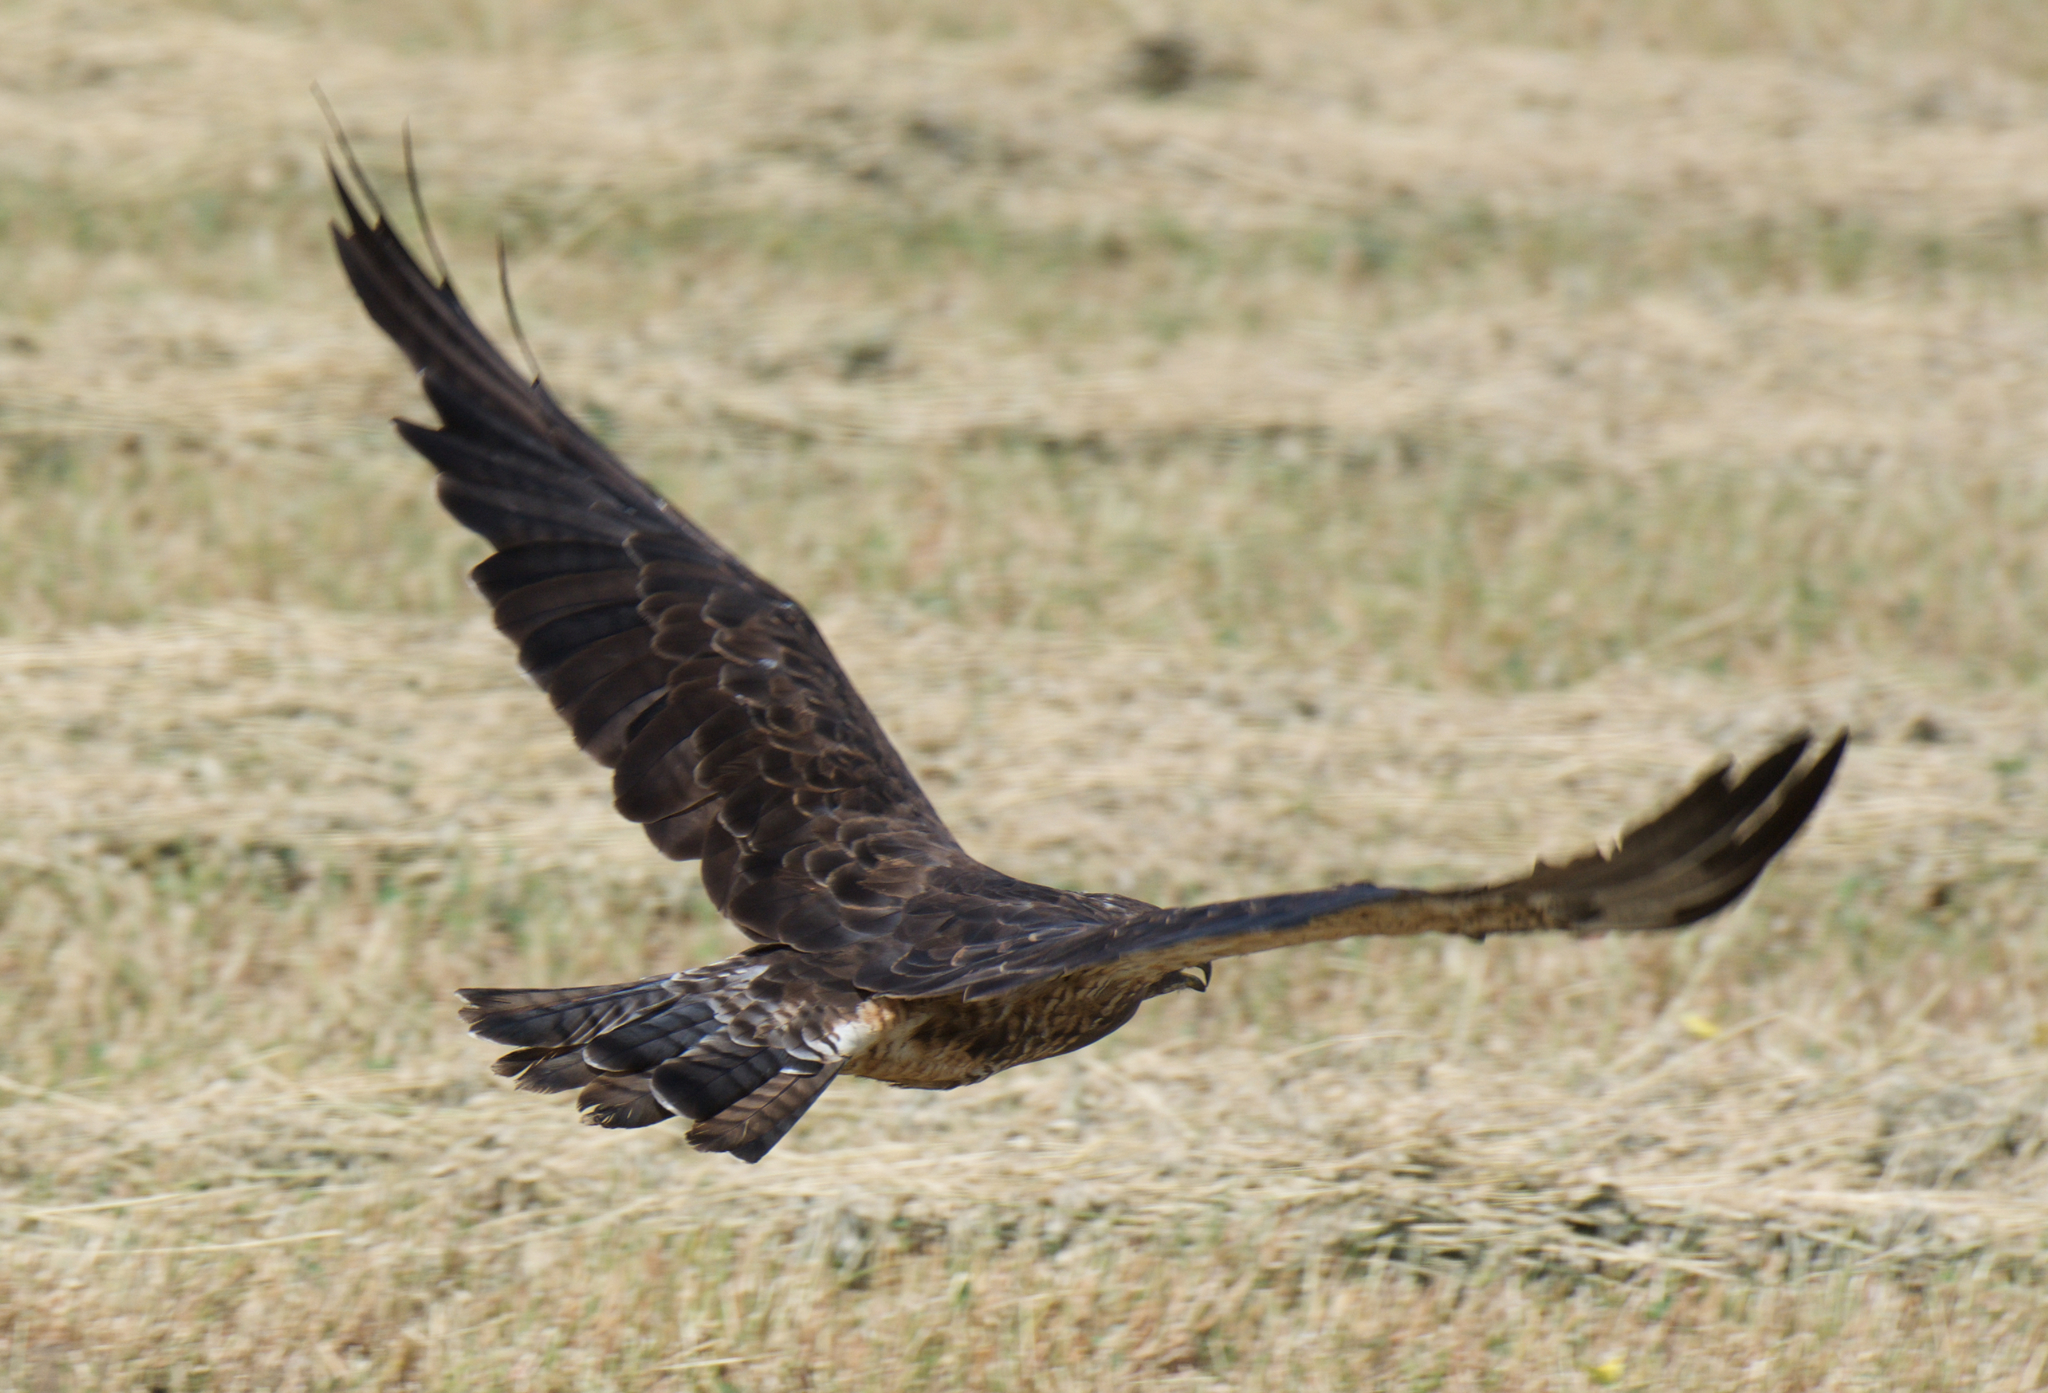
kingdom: Animalia
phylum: Chordata
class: Aves
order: Accipitriformes
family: Accipitridae
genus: Buteo
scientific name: Buteo swainsoni
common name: Swainson's hawk
